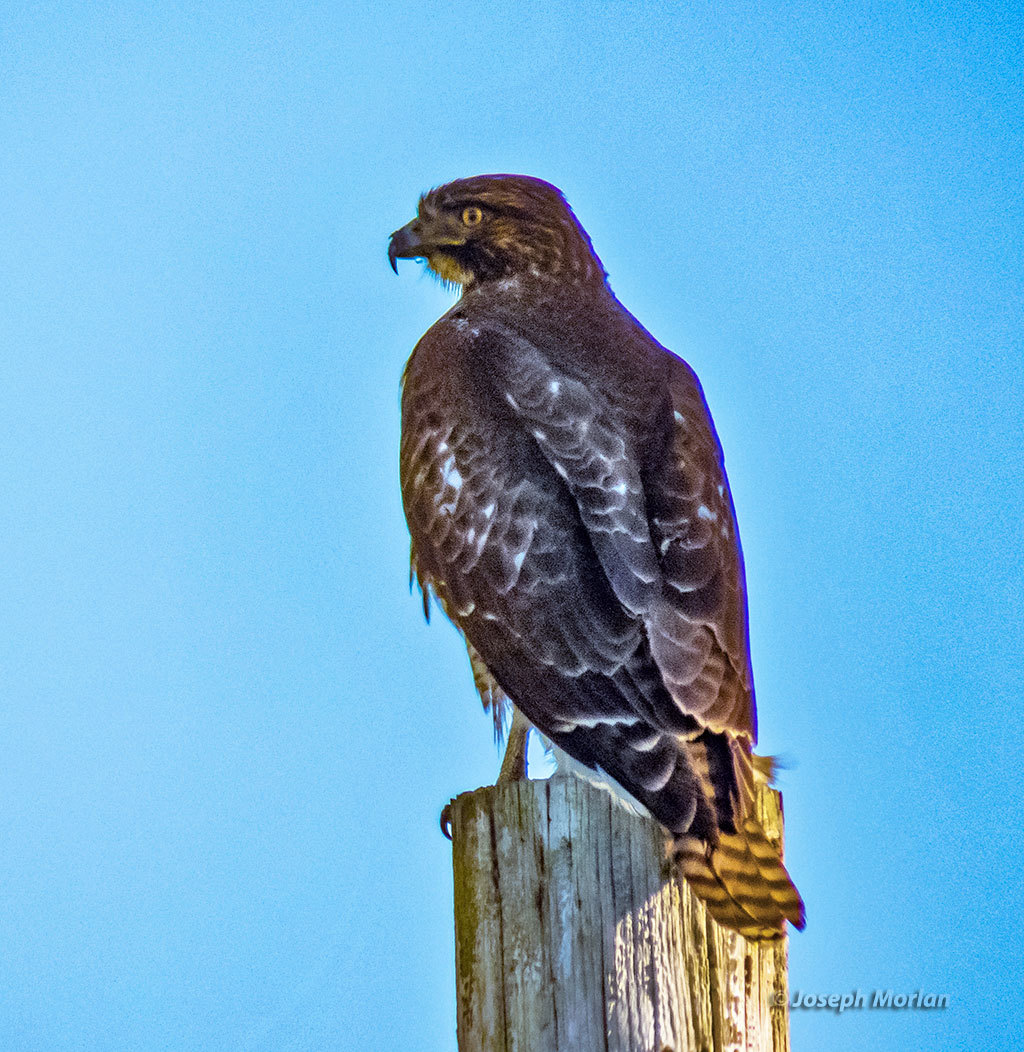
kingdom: Animalia
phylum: Chordata
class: Aves
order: Accipitriformes
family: Accipitridae
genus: Buteo
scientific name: Buteo jamaicensis
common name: Red-tailed hawk
